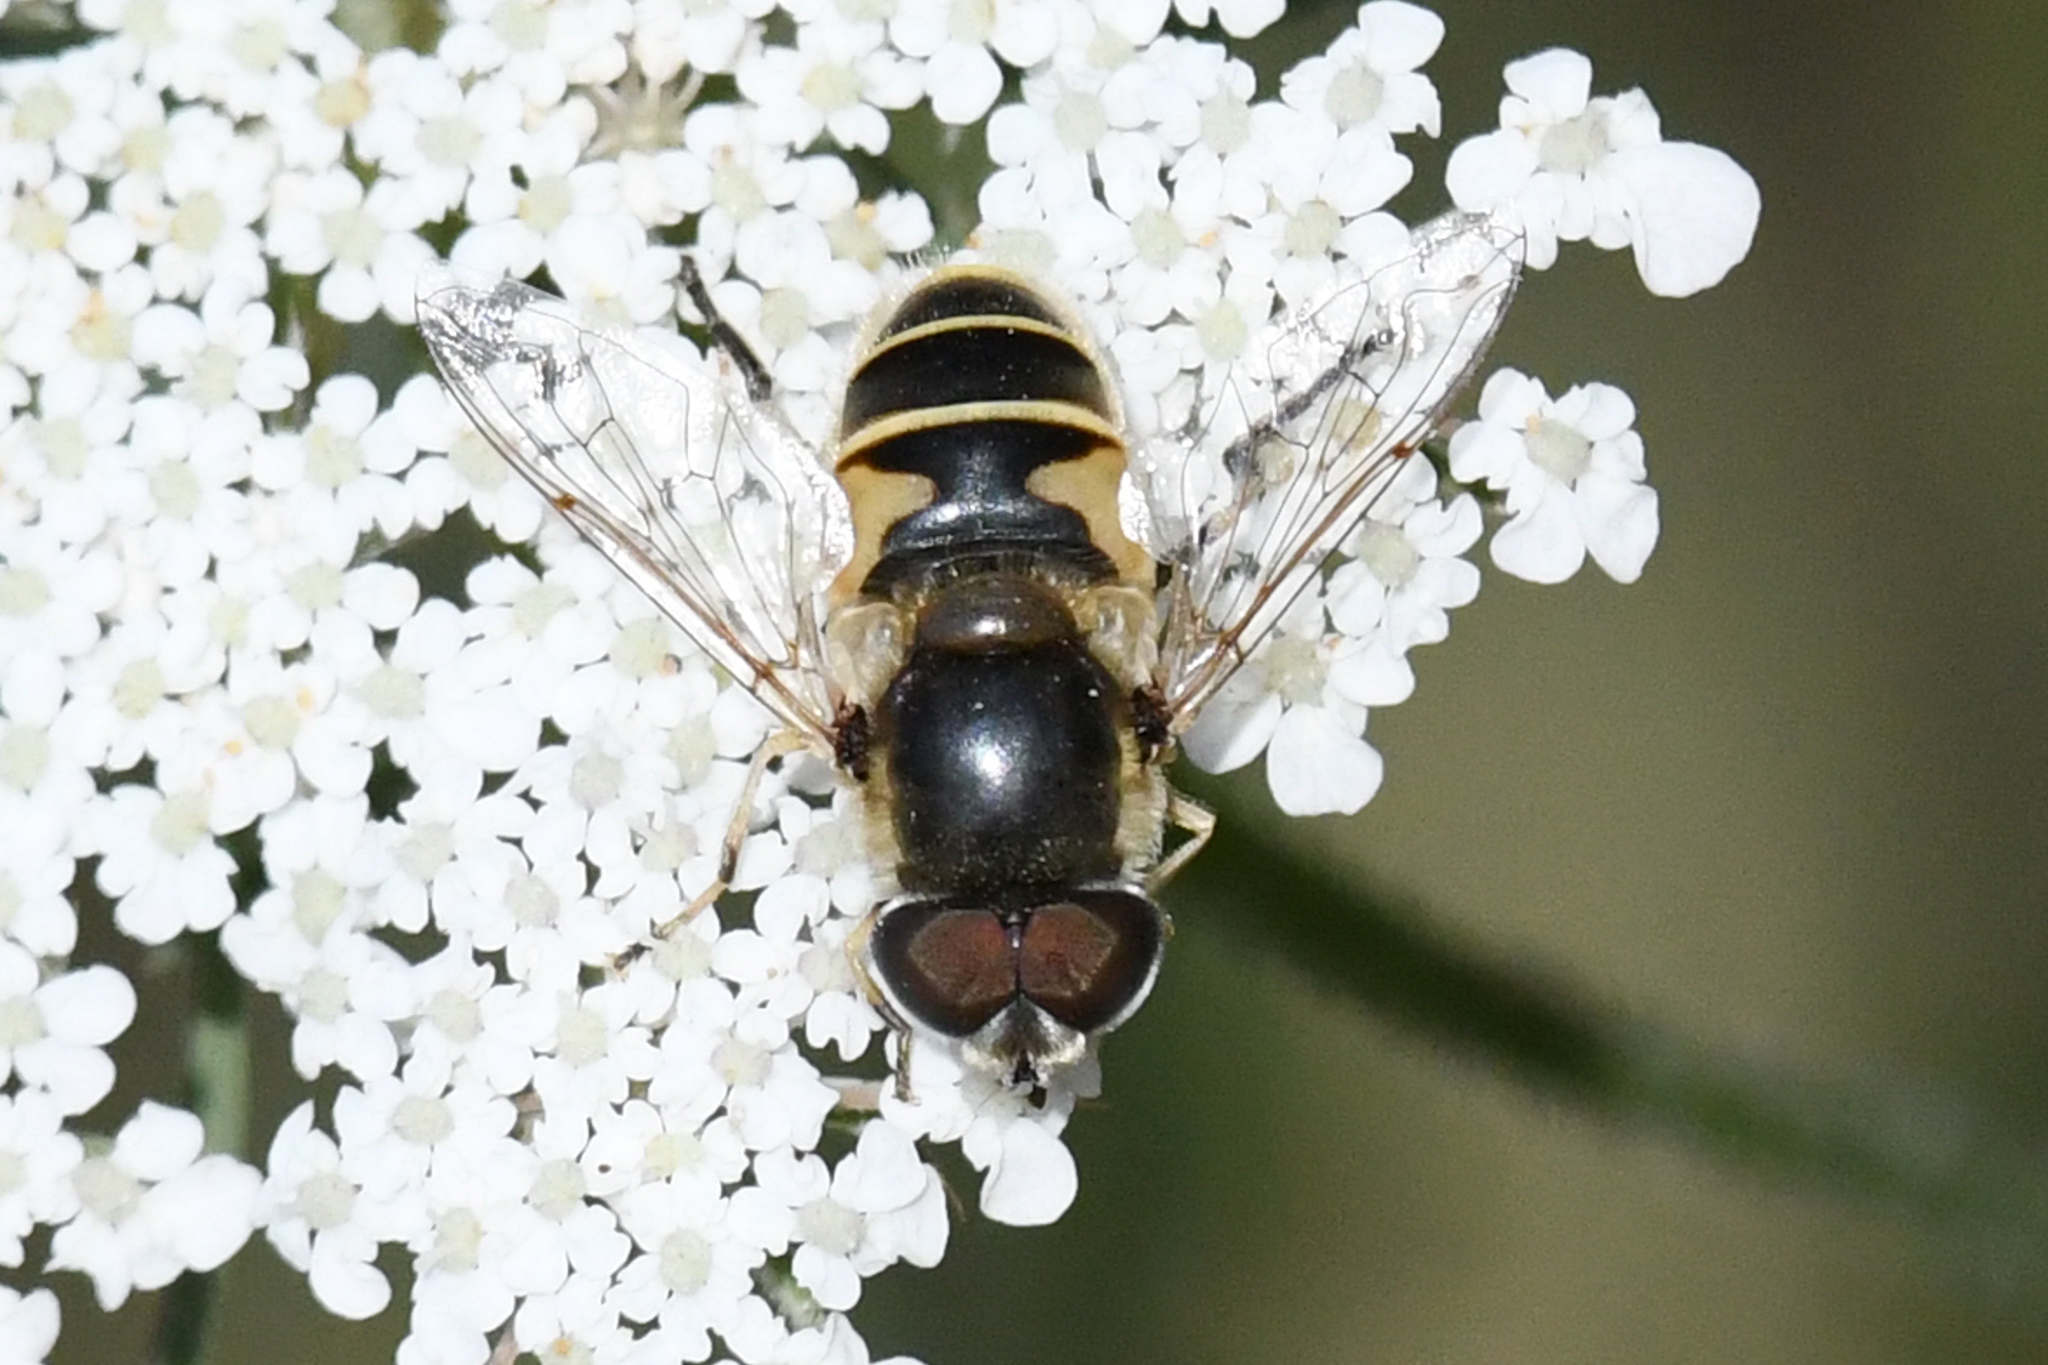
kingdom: Animalia
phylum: Arthropoda
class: Insecta
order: Diptera
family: Syrphidae
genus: Eristalis
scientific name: Eristalis hirta
